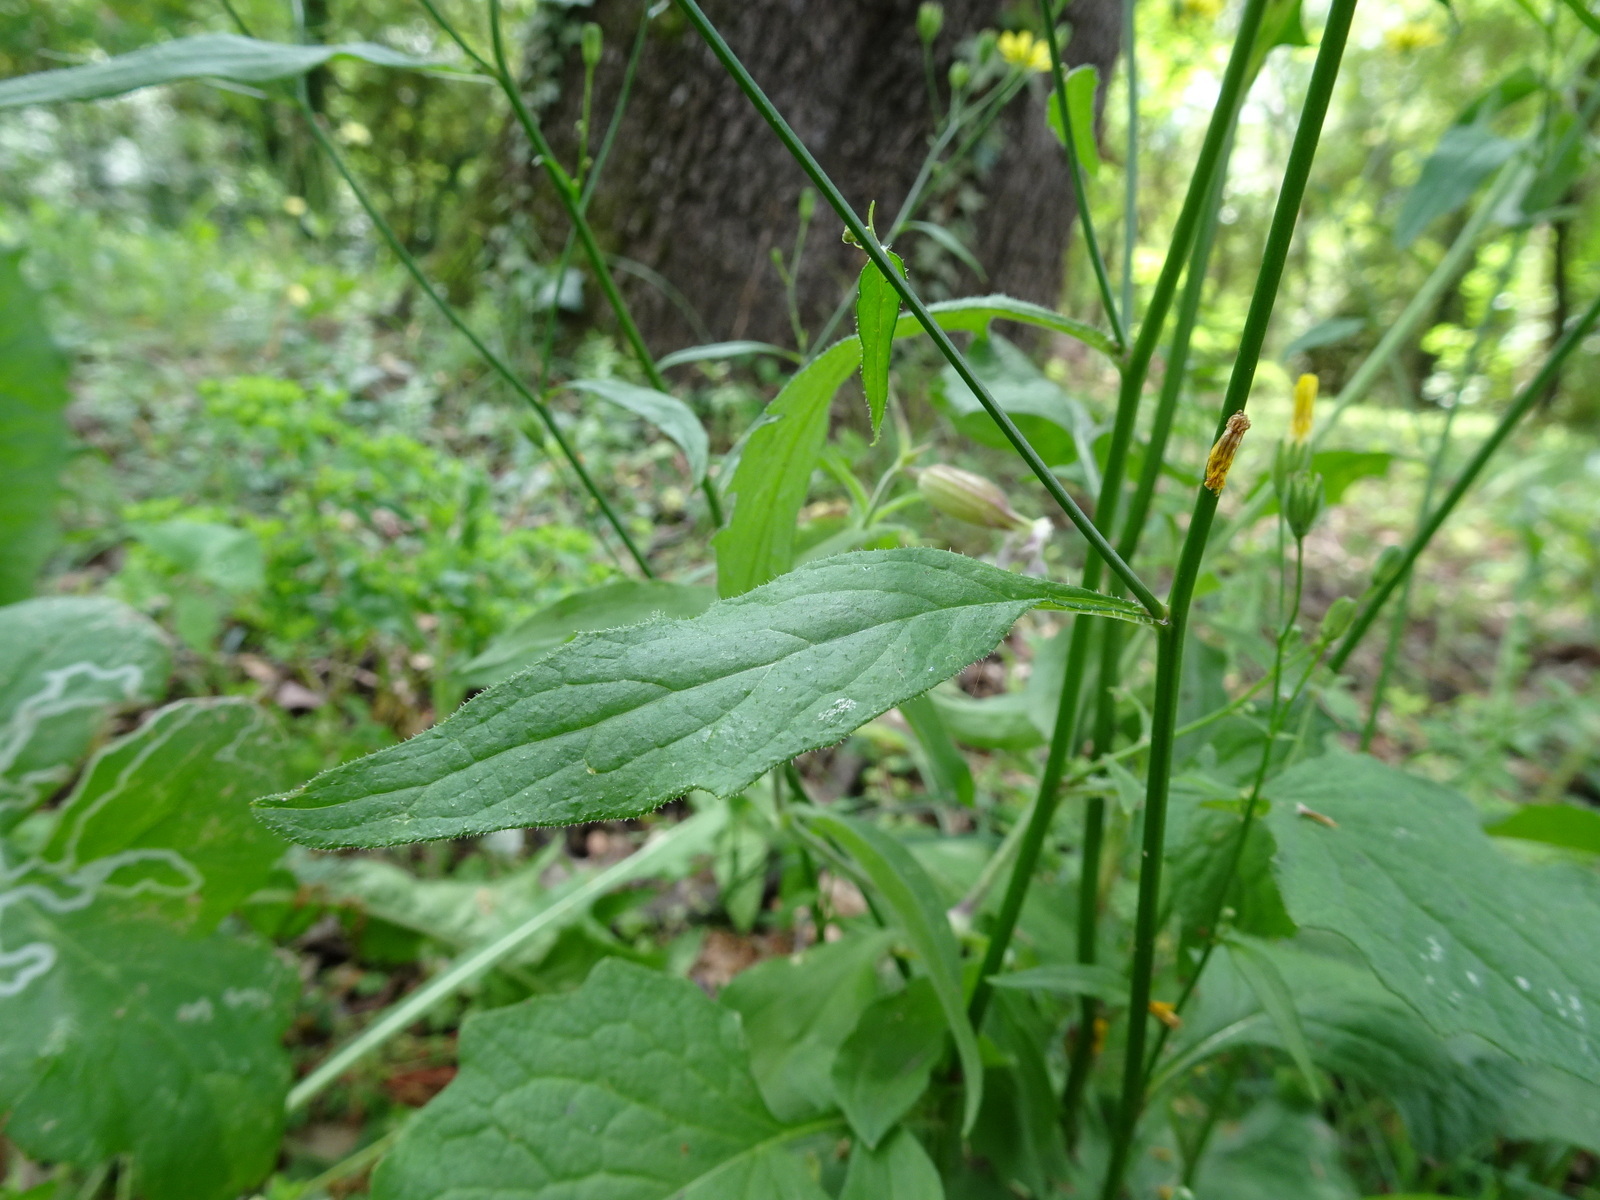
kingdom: Plantae
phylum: Tracheophyta
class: Magnoliopsida
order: Asterales
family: Asteraceae
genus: Lapsana
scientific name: Lapsana communis
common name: Nipplewort
